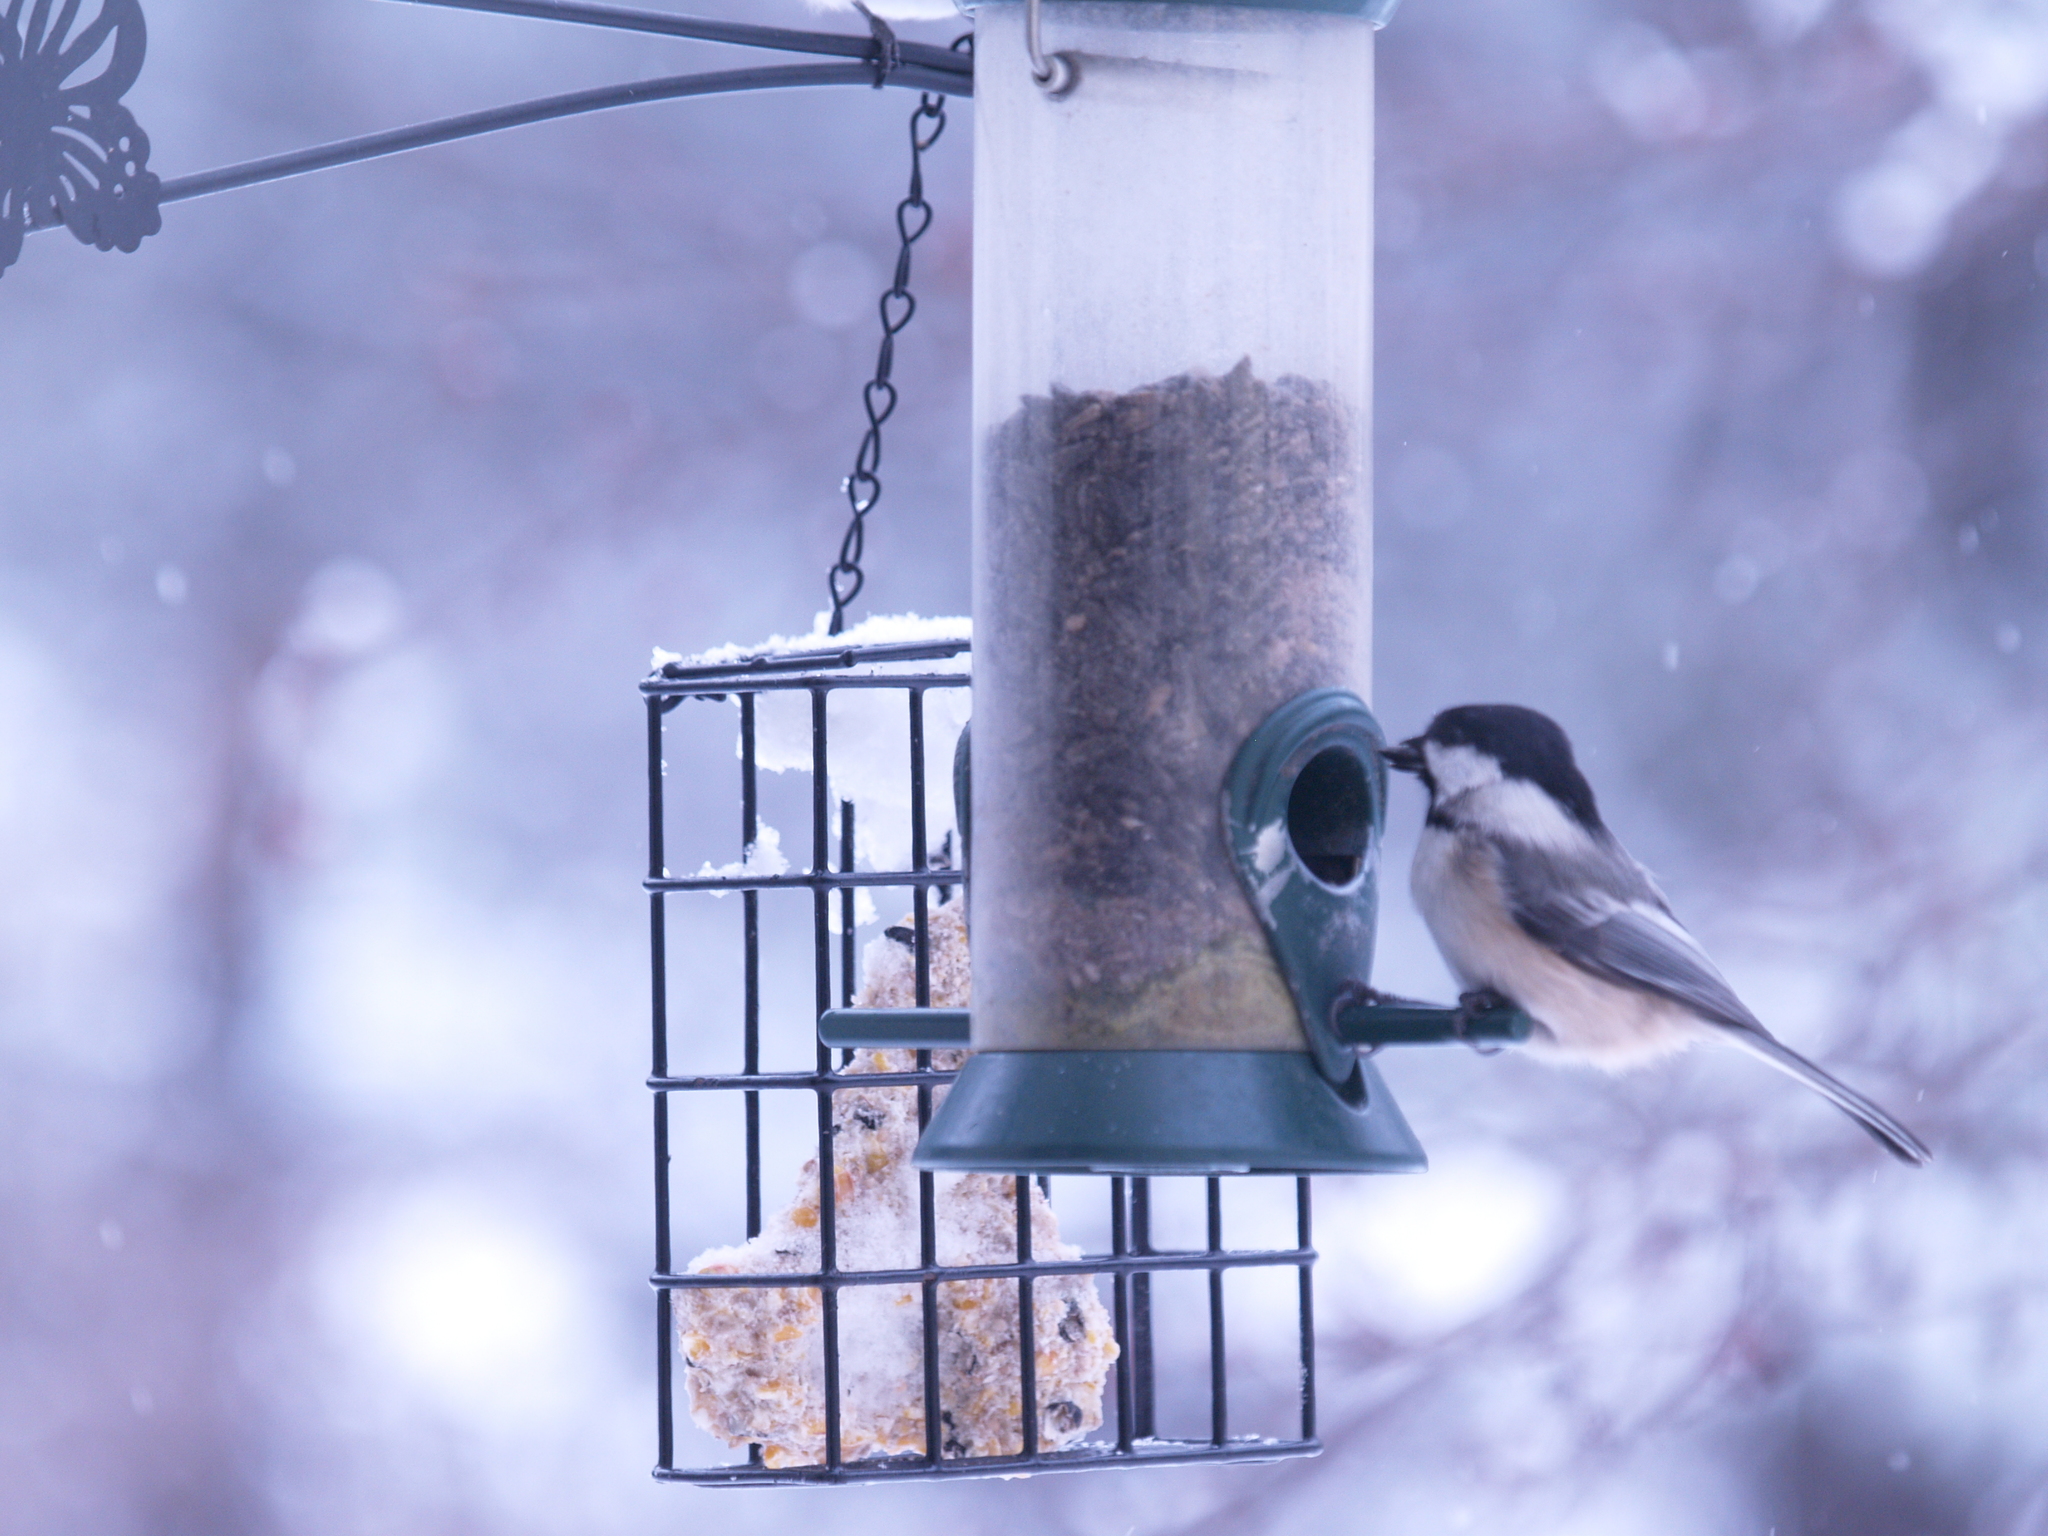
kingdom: Animalia
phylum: Chordata
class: Aves
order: Passeriformes
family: Paridae
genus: Poecile
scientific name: Poecile atricapillus
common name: Black-capped chickadee
